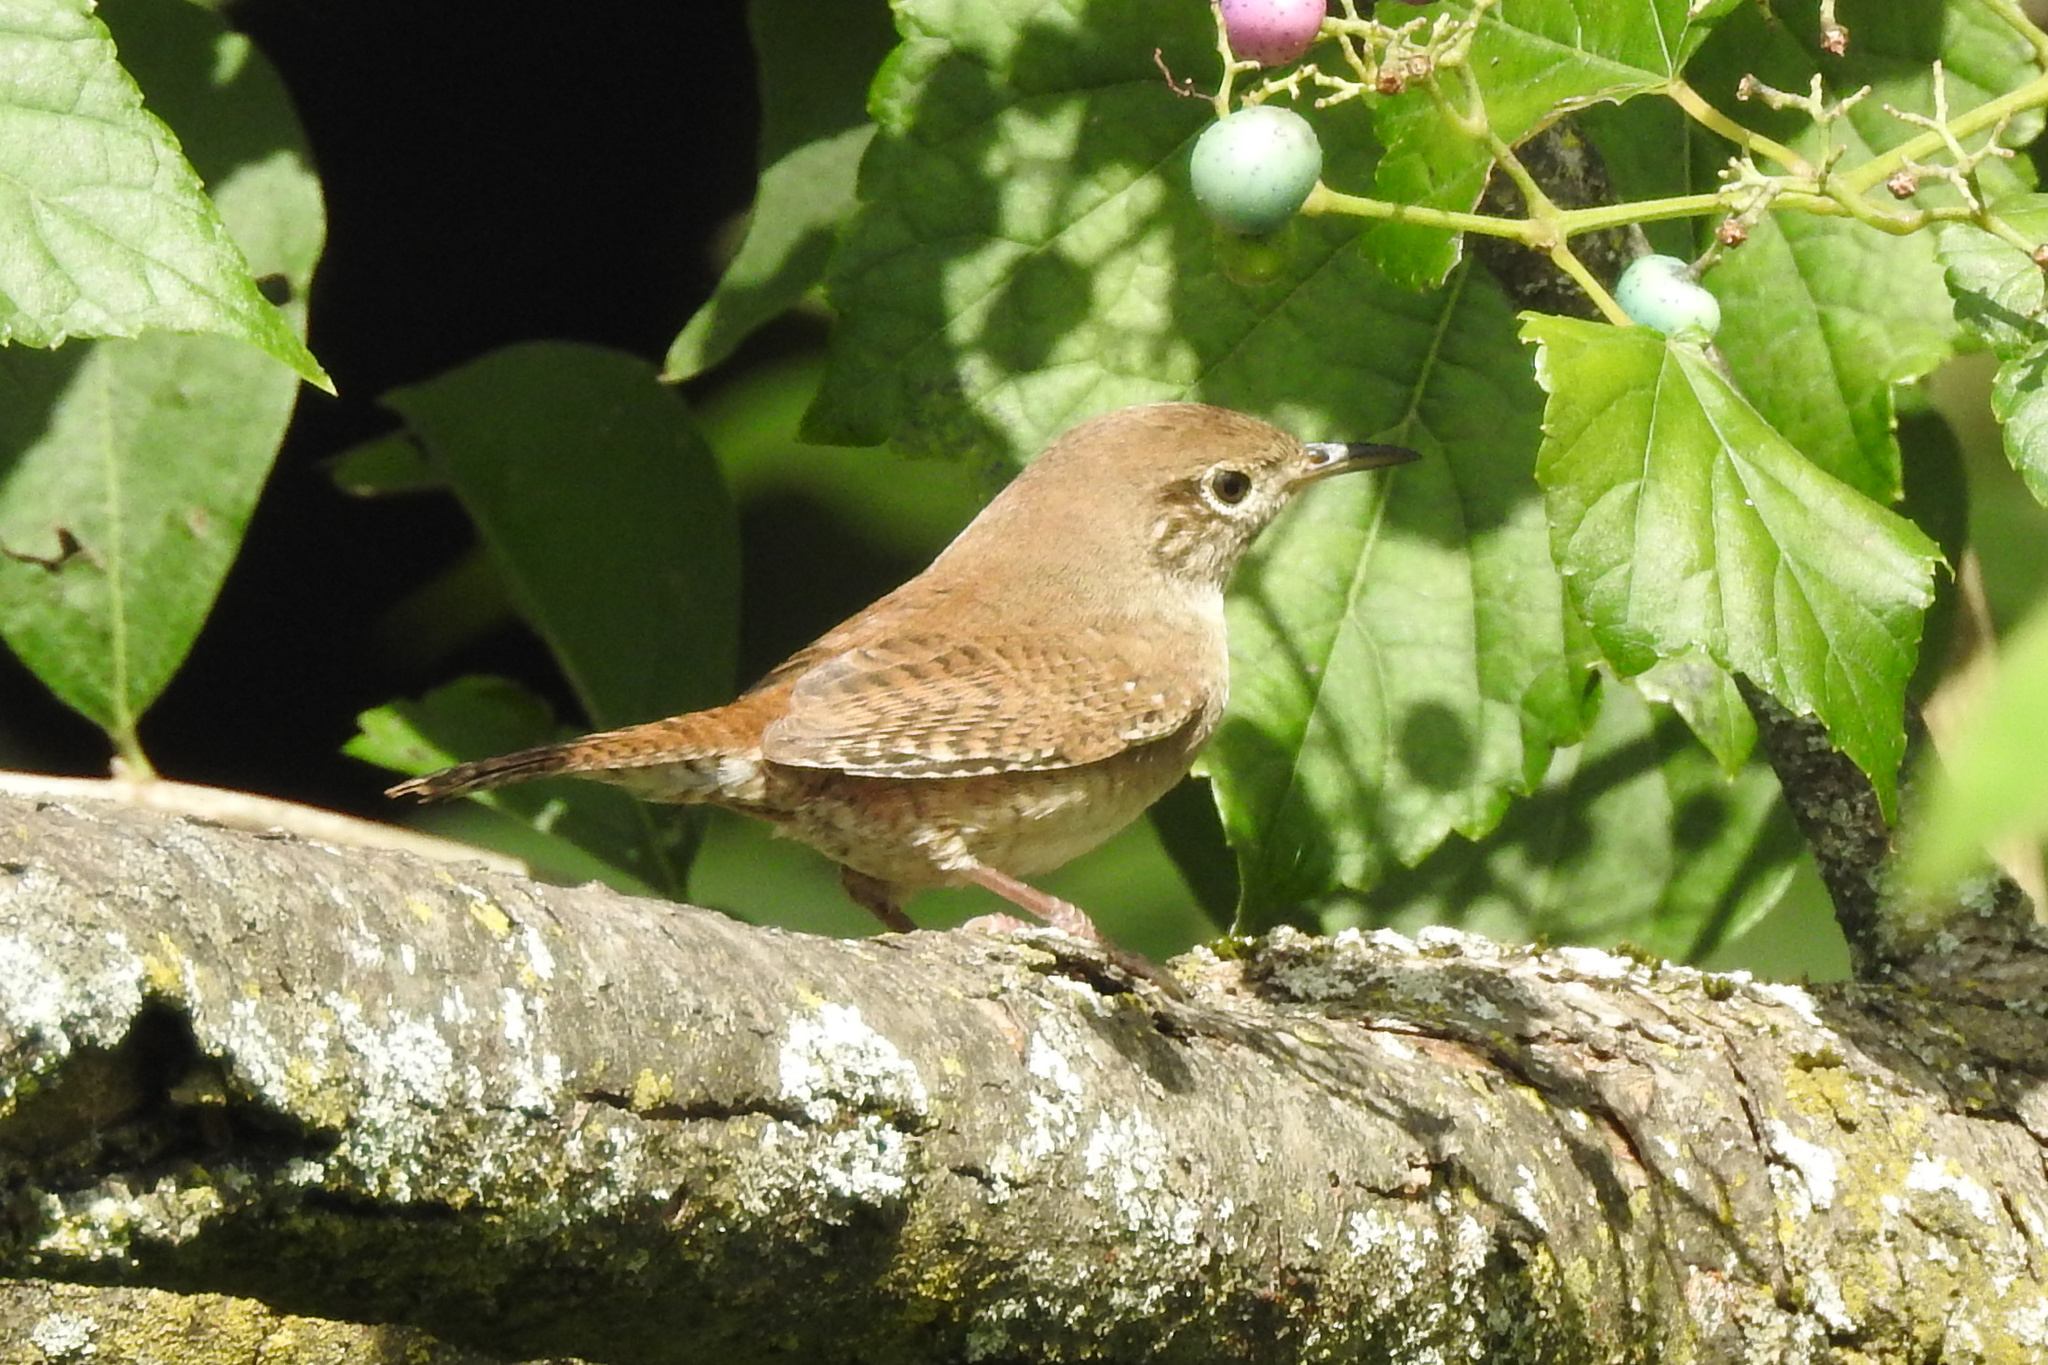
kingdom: Animalia
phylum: Chordata
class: Aves
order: Passeriformes
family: Troglodytidae
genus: Troglodytes
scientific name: Troglodytes aedon
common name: House wren
